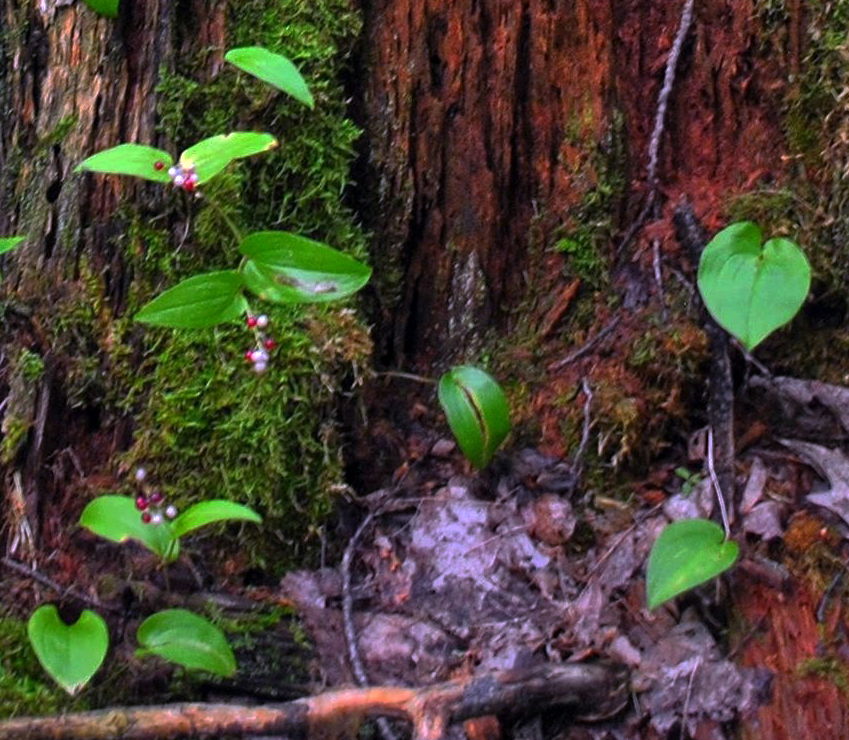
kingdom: Plantae
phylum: Tracheophyta
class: Liliopsida
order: Asparagales
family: Asparagaceae
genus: Maianthemum
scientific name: Maianthemum canadense
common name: False lily-of-the-valley
